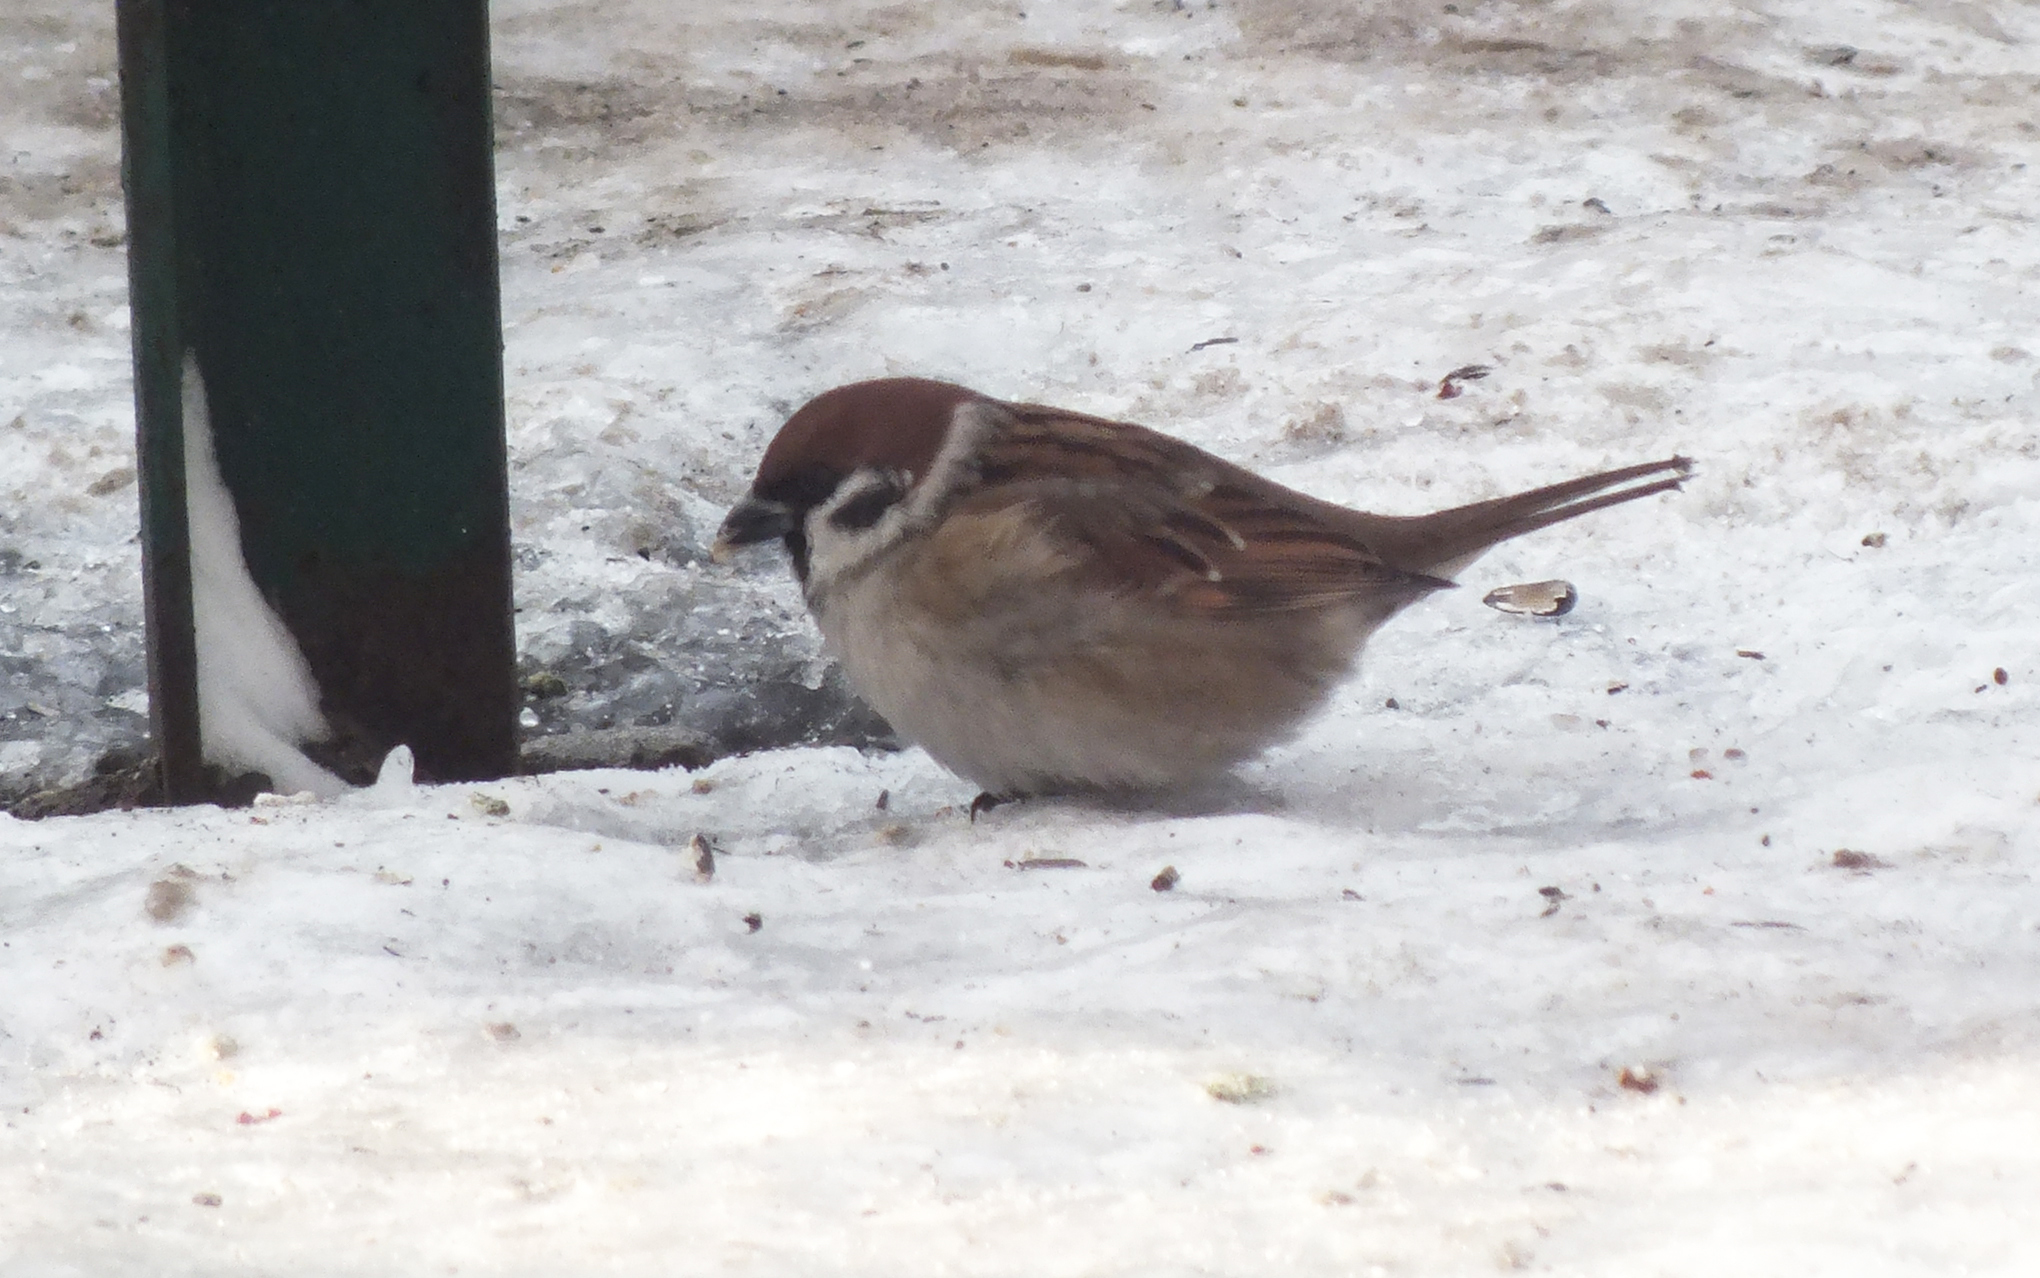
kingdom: Animalia
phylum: Chordata
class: Aves
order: Passeriformes
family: Passeridae
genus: Passer
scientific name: Passer montanus
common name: Eurasian tree sparrow
